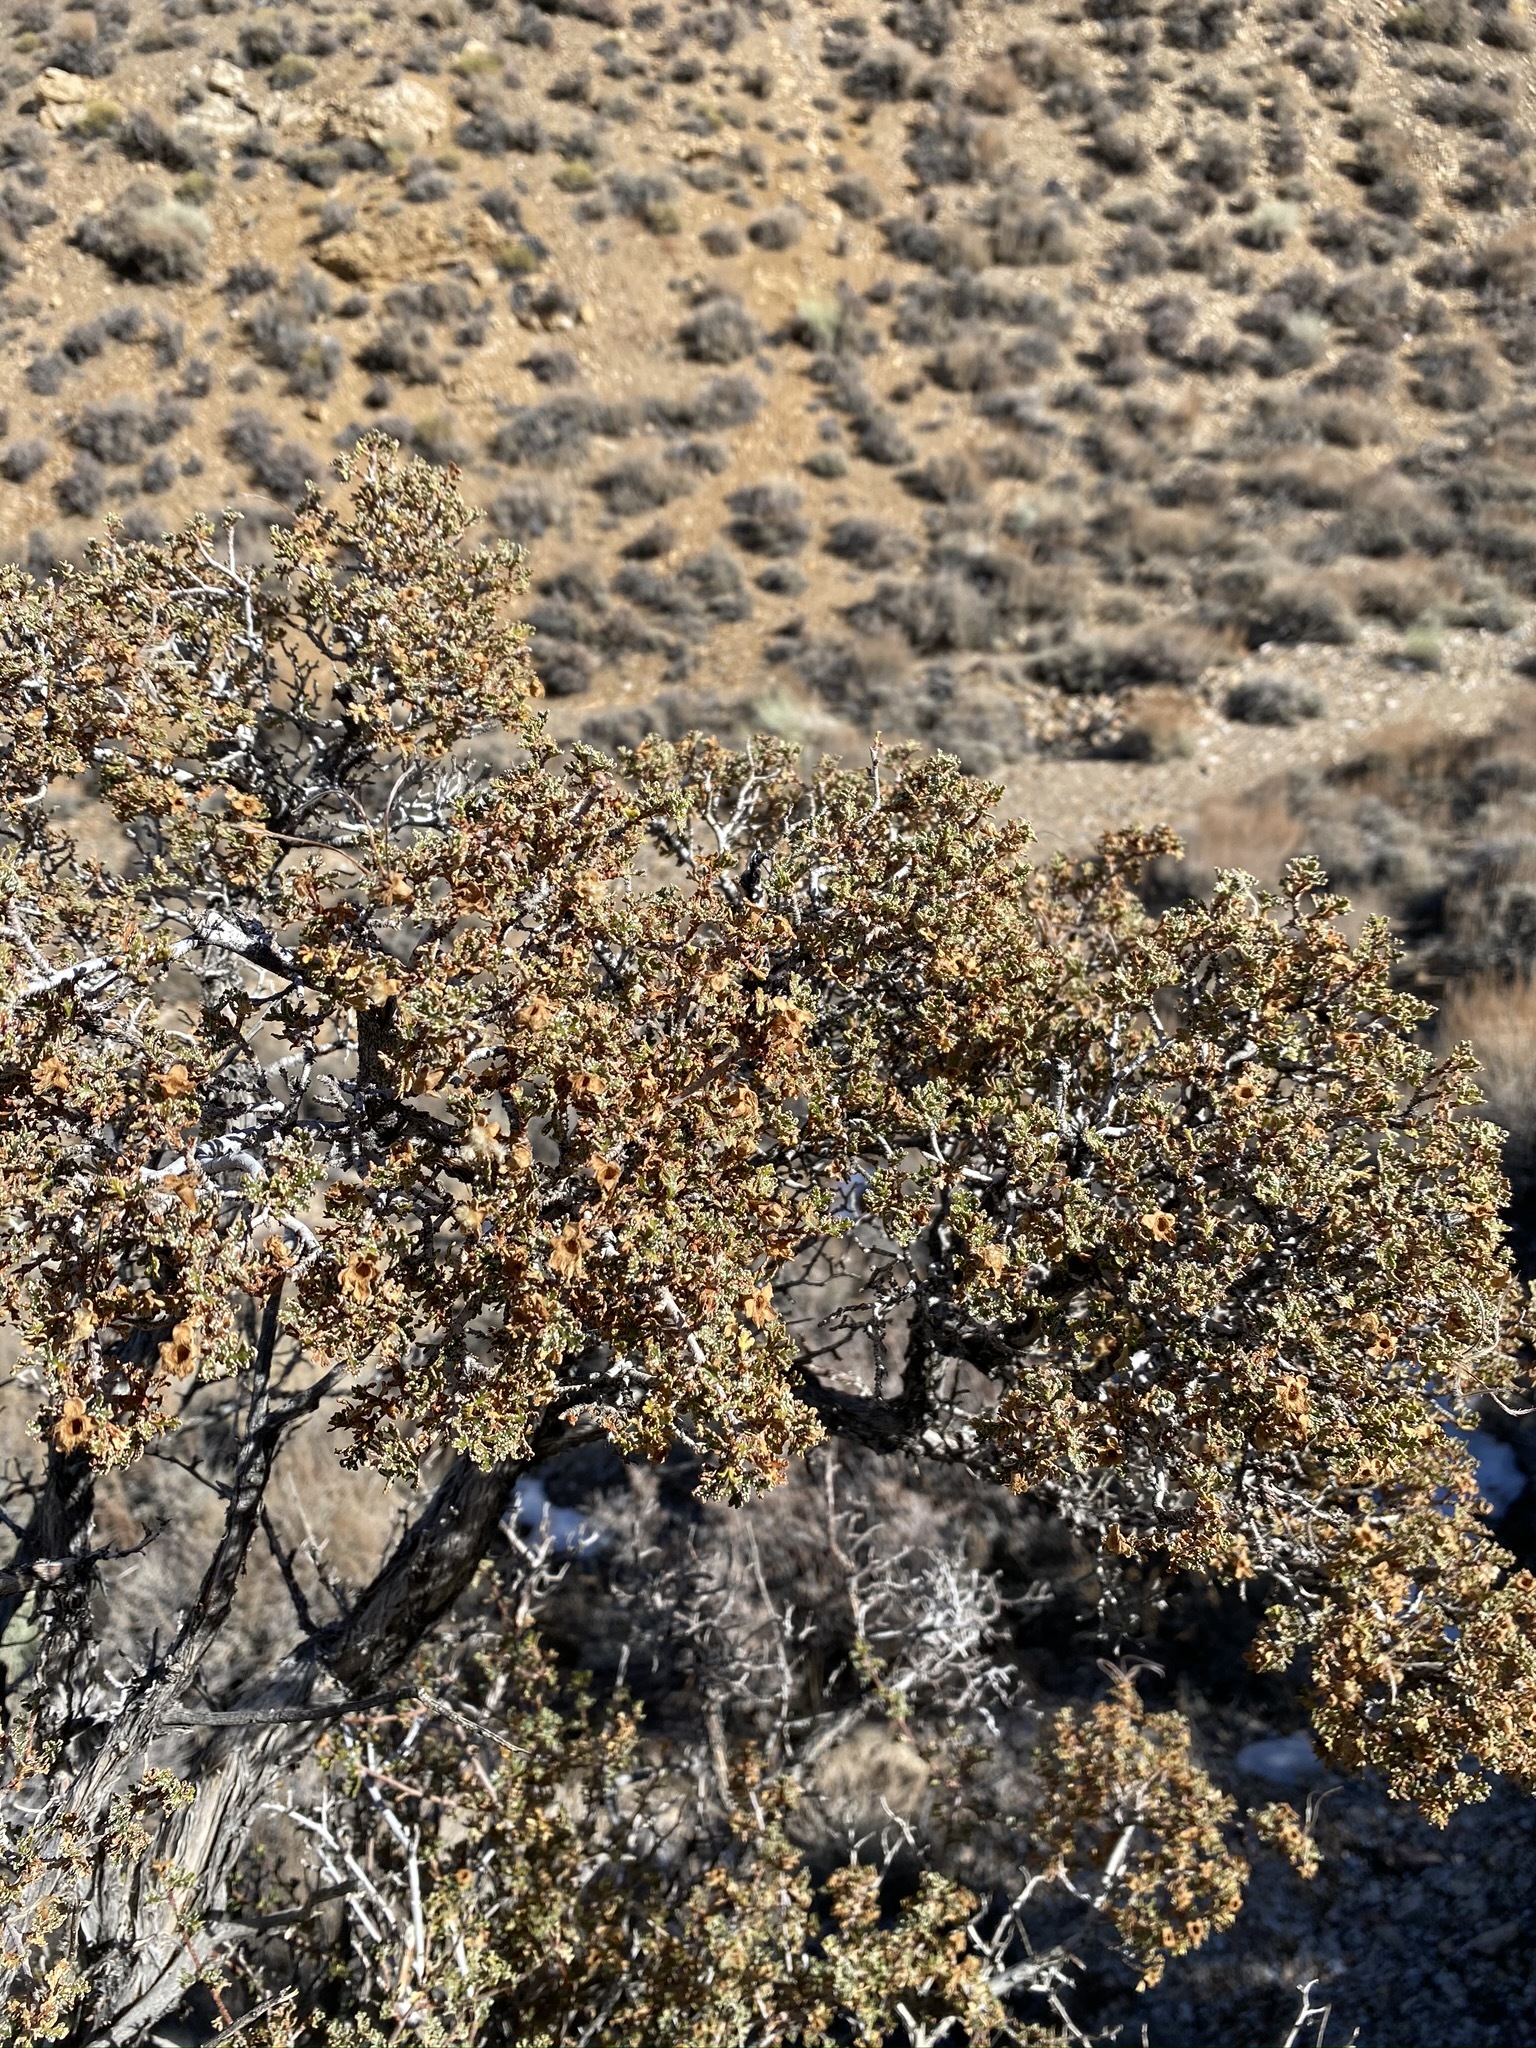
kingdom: Plantae
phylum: Tracheophyta
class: Magnoliopsida
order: Rosales
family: Rosaceae
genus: Purshia
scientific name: Purshia stansburiana
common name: Stansbury's cliffrose
